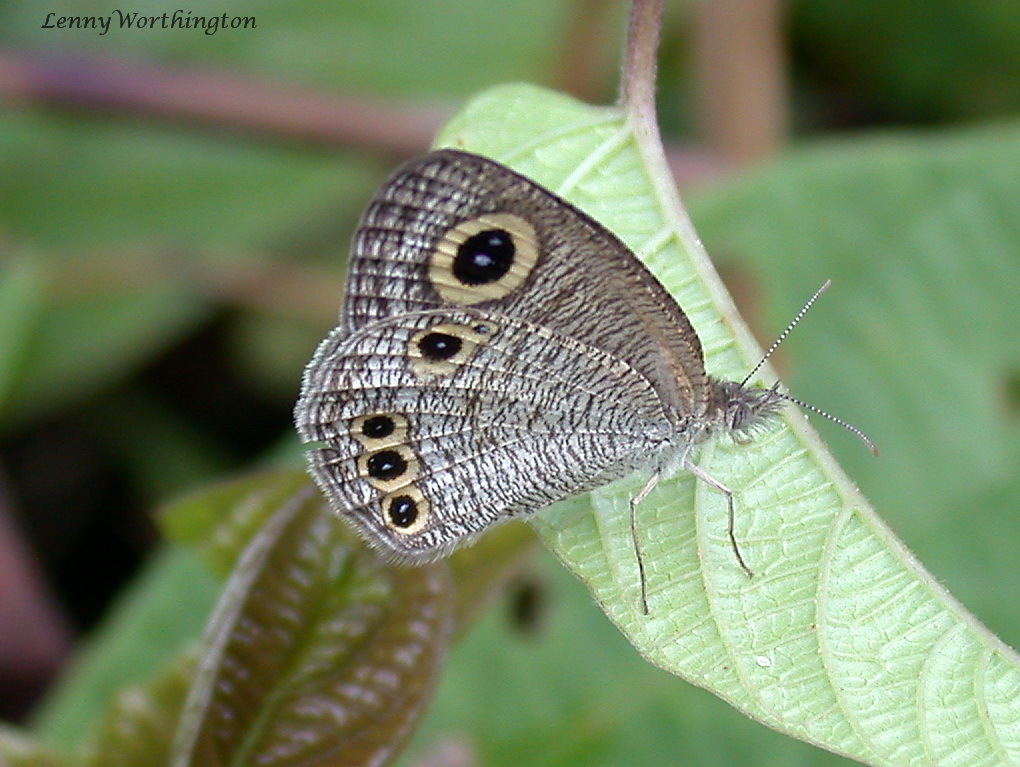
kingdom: Animalia
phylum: Arthropoda
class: Insecta
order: Lepidoptera
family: Nymphalidae
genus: Ypthima
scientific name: Ypthima huebneri
